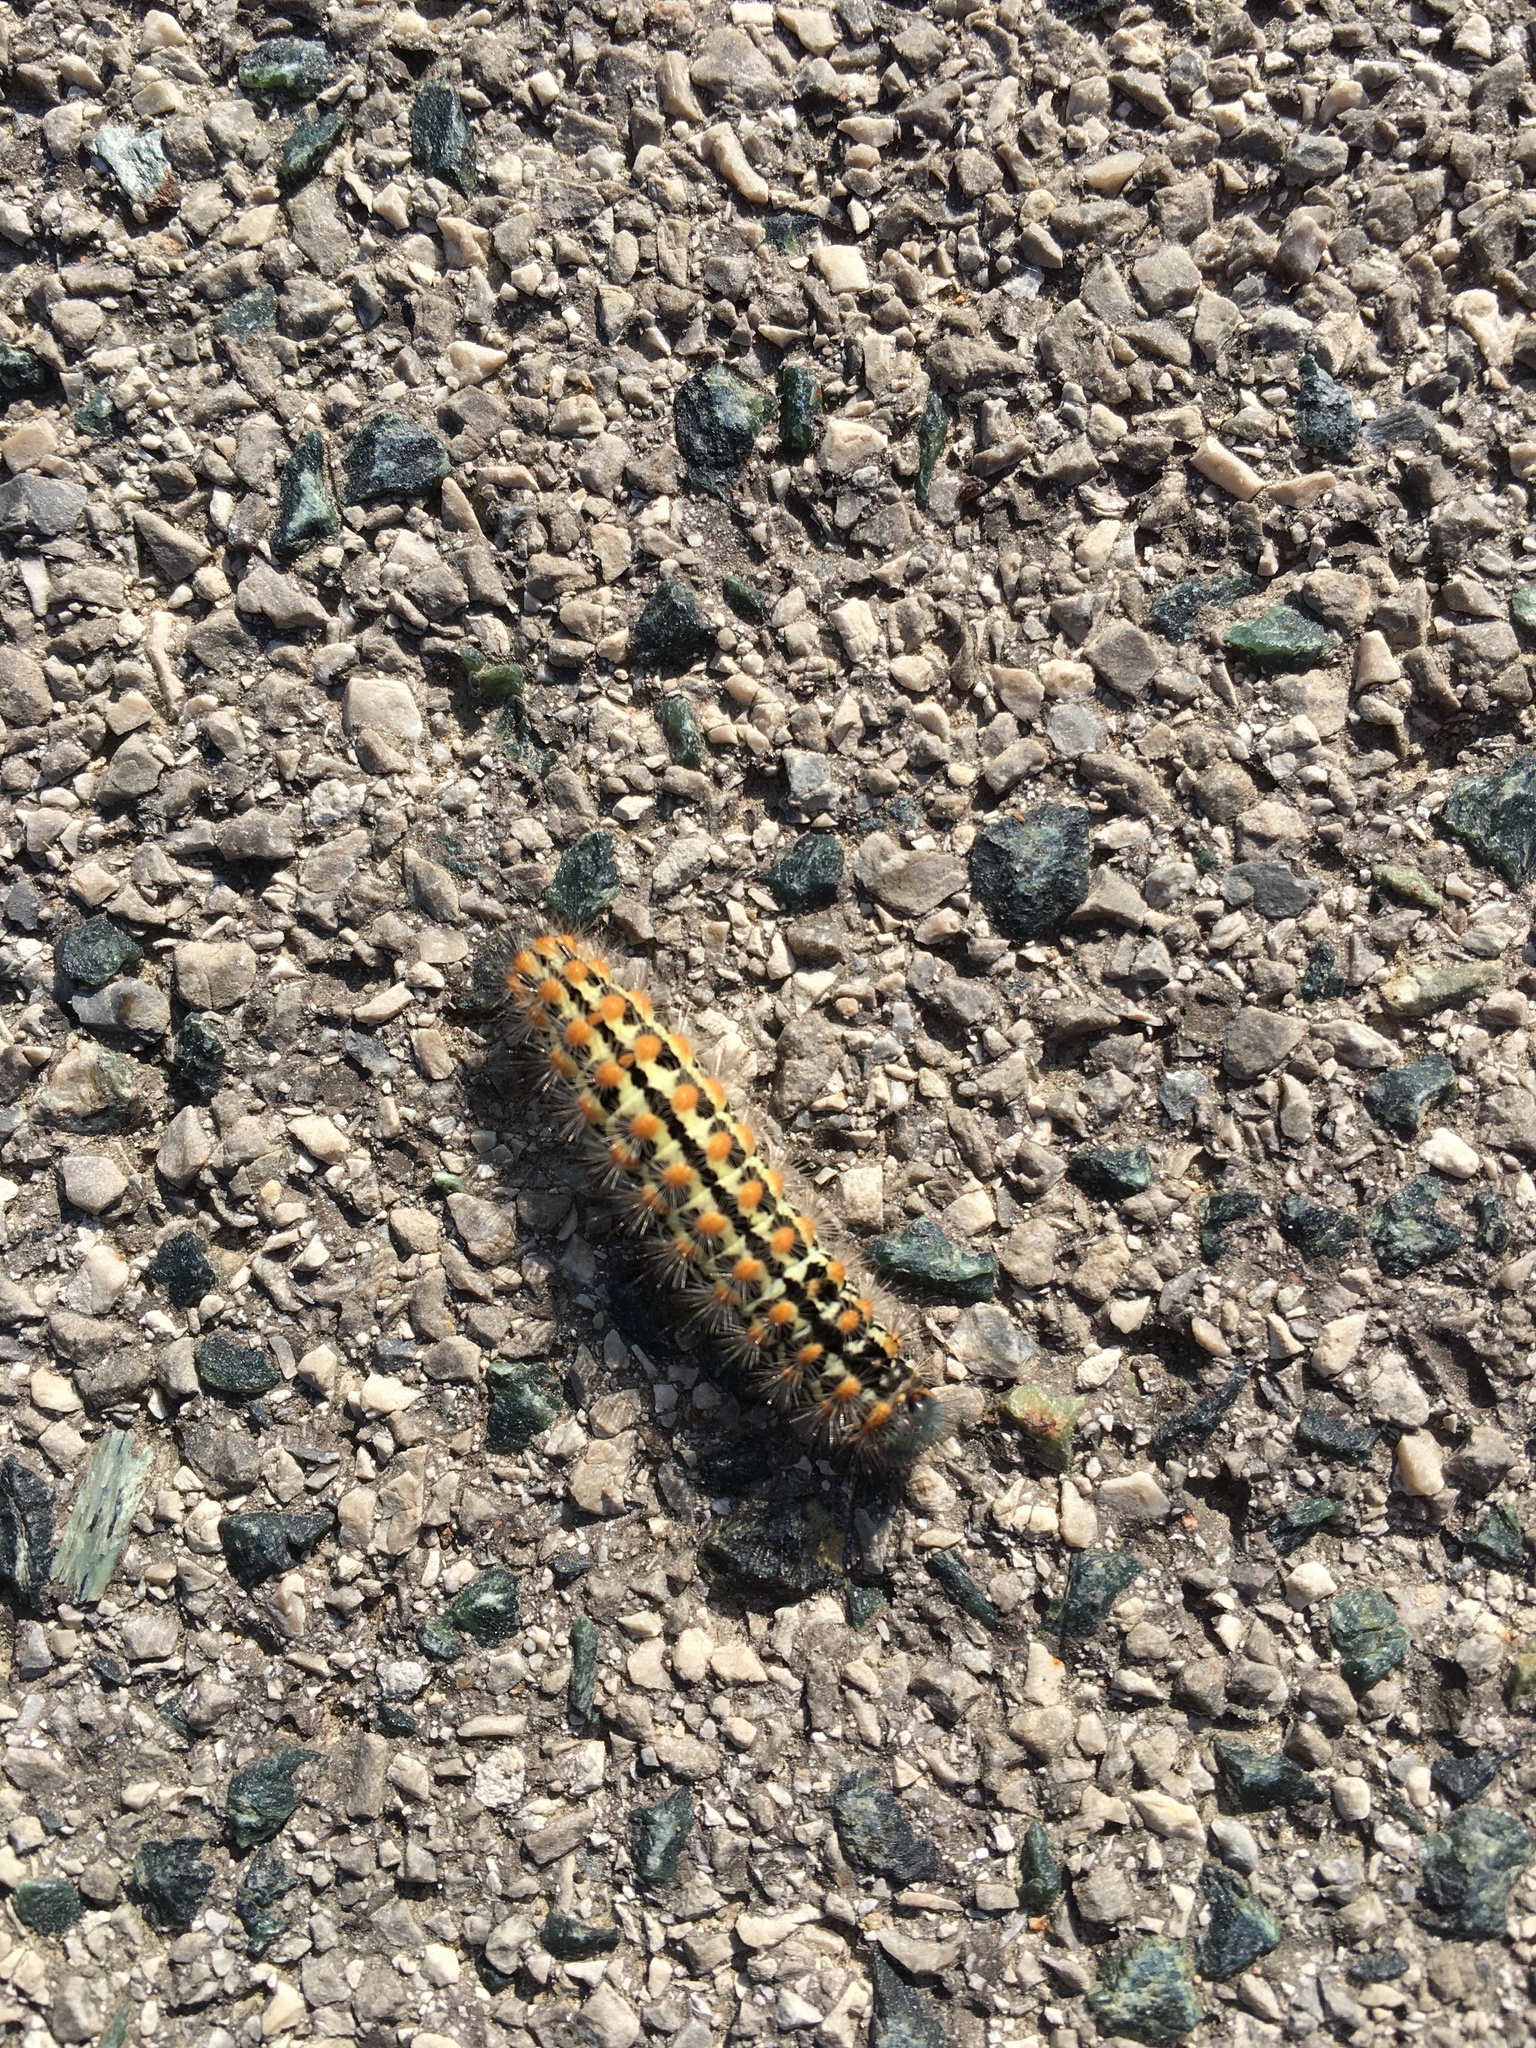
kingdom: Animalia
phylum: Arthropoda
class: Insecta
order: Lepidoptera
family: Erebidae
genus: Penthophera
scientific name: Penthophera morio
